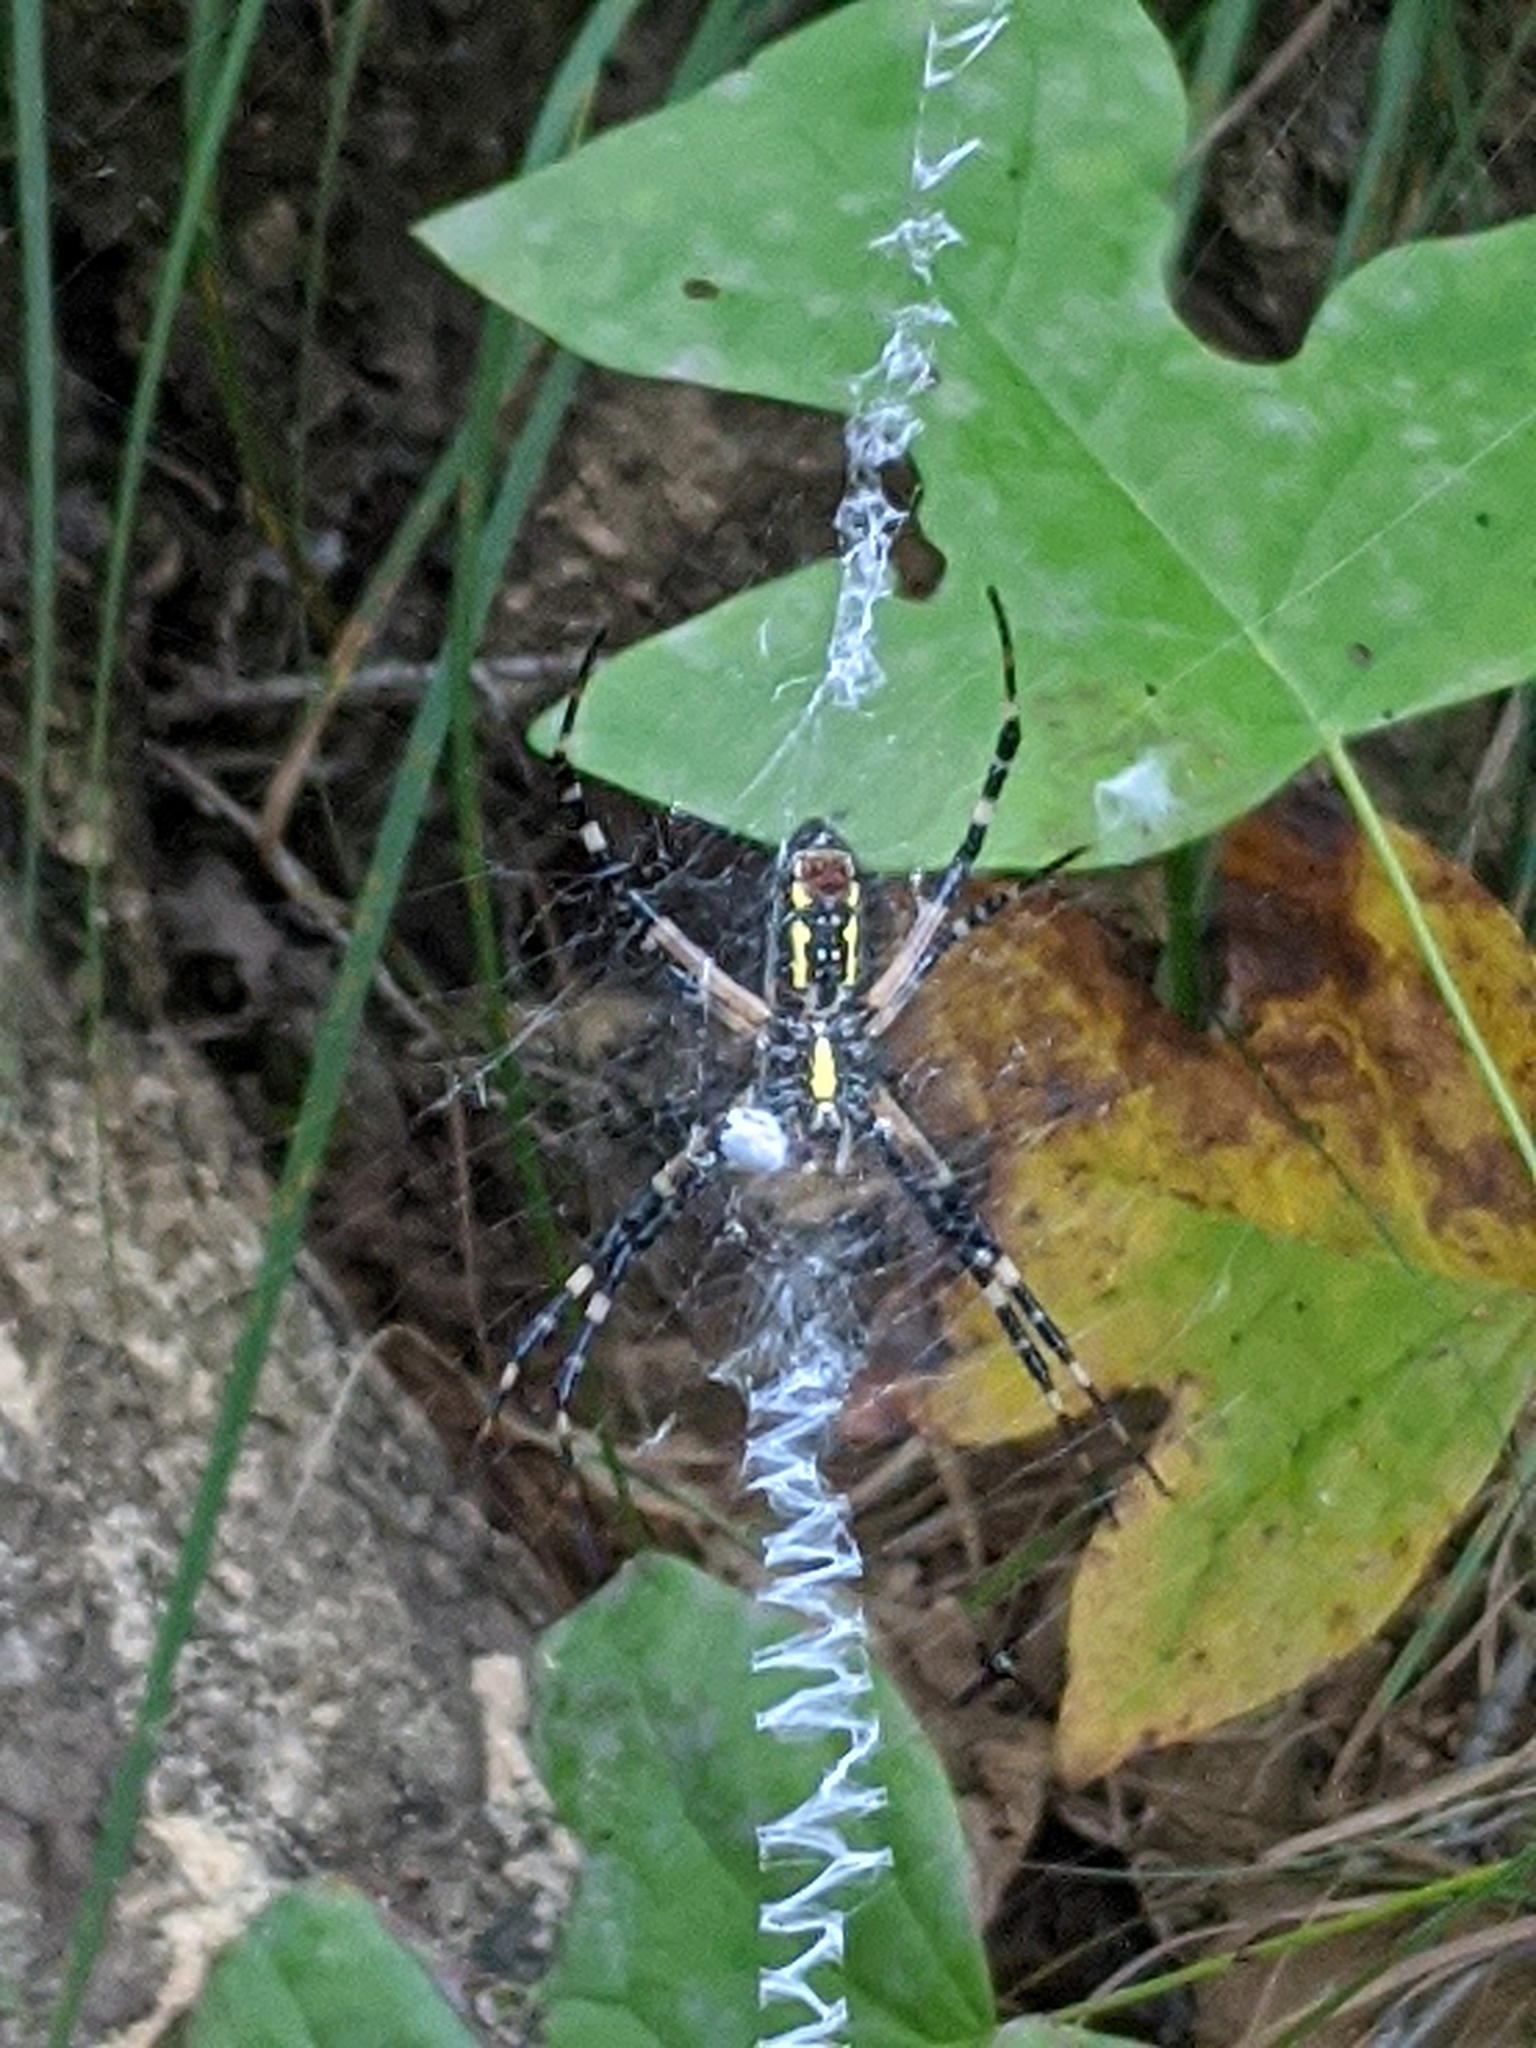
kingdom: Animalia
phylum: Arthropoda
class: Arachnida
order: Araneae
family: Araneidae
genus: Argiope
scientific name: Argiope aurantia
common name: Orb weavers
